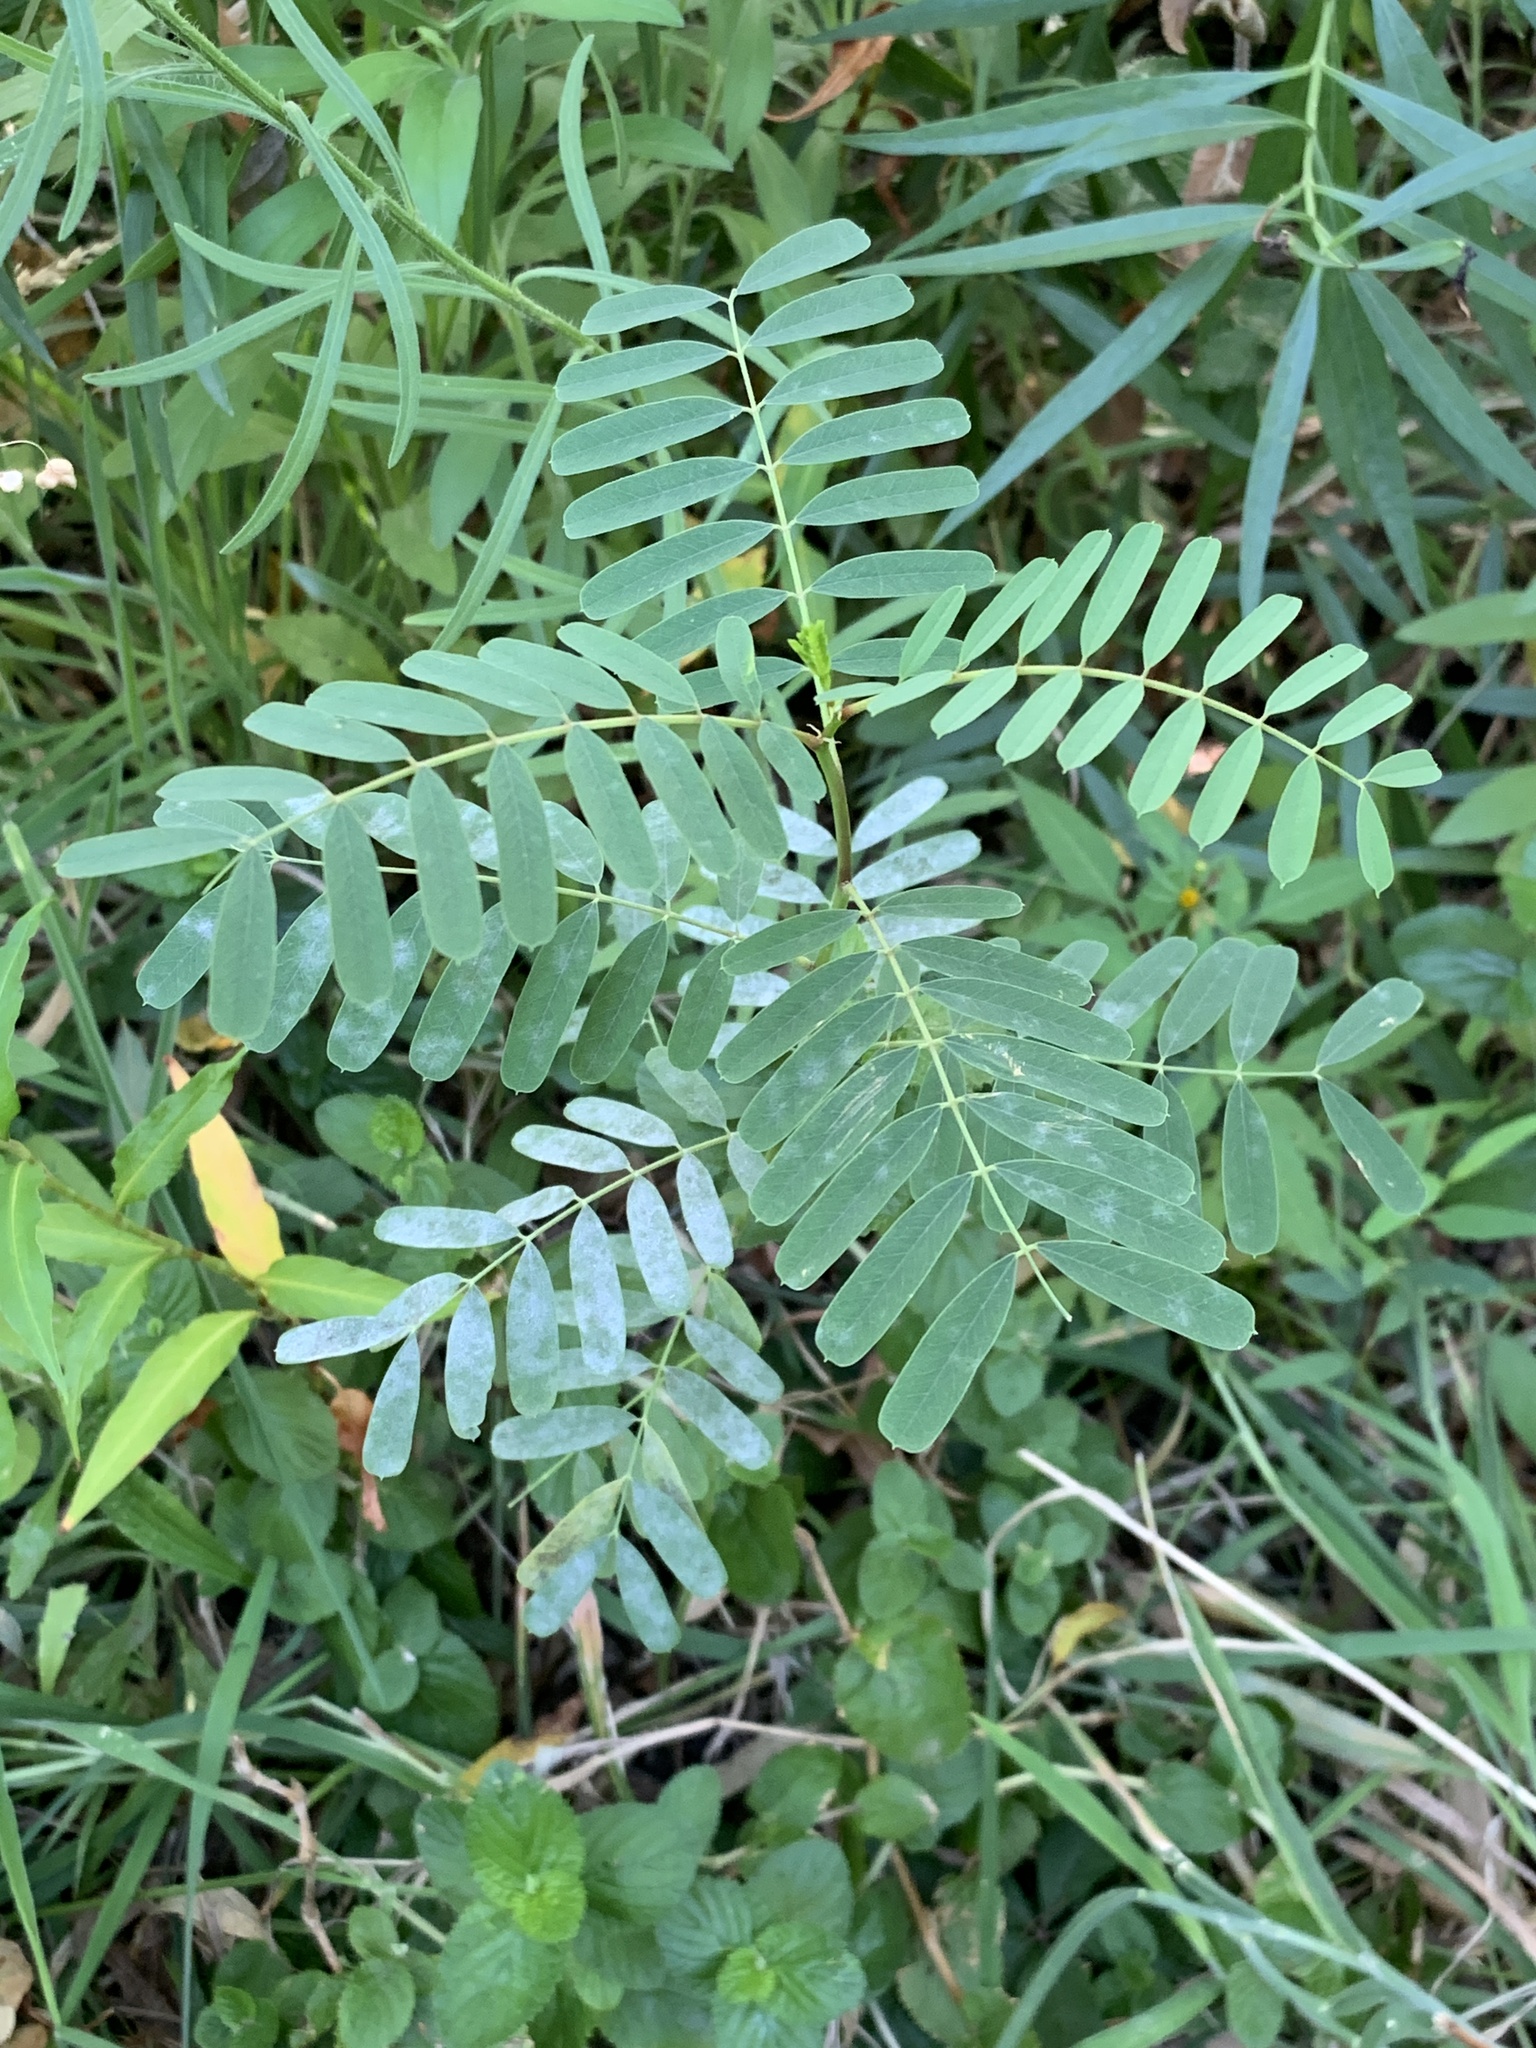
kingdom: Plantae
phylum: Tracheophyta
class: Magnoliopsida
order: Fabales
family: Fabaceae
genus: Sesbania
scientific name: Sesbania punicea
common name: Rattlebox
